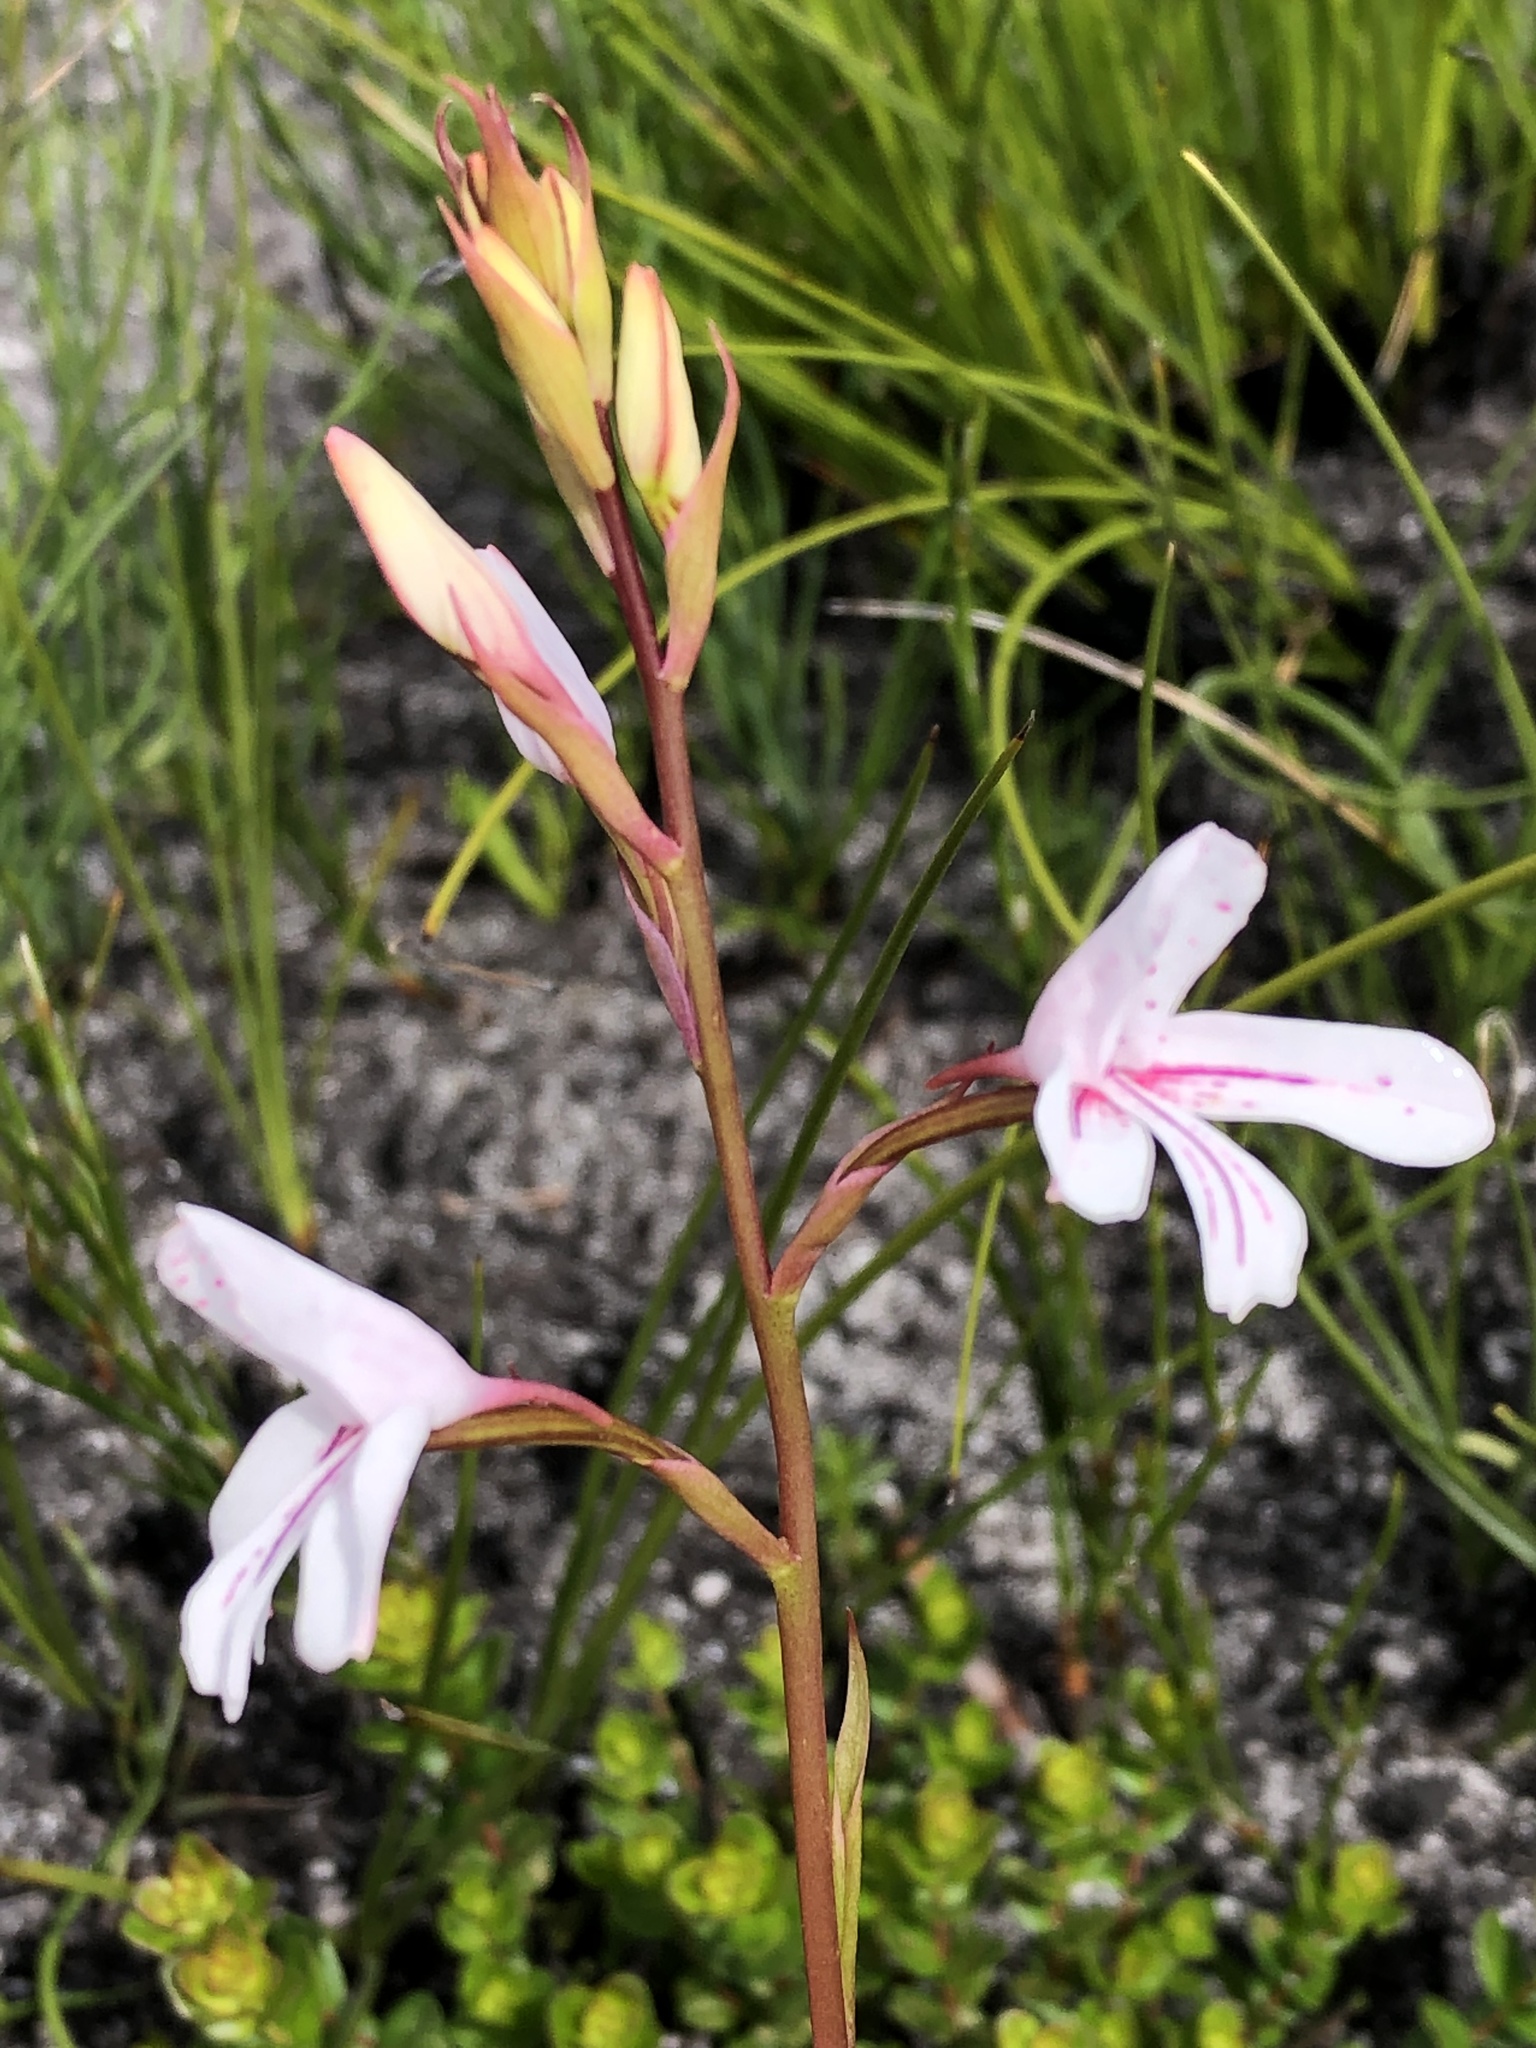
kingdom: Plantae
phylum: Tracheophyta
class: Liliopsida
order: Asparagales
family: Orchidaceae
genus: Disa
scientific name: Disa gladioliflora
